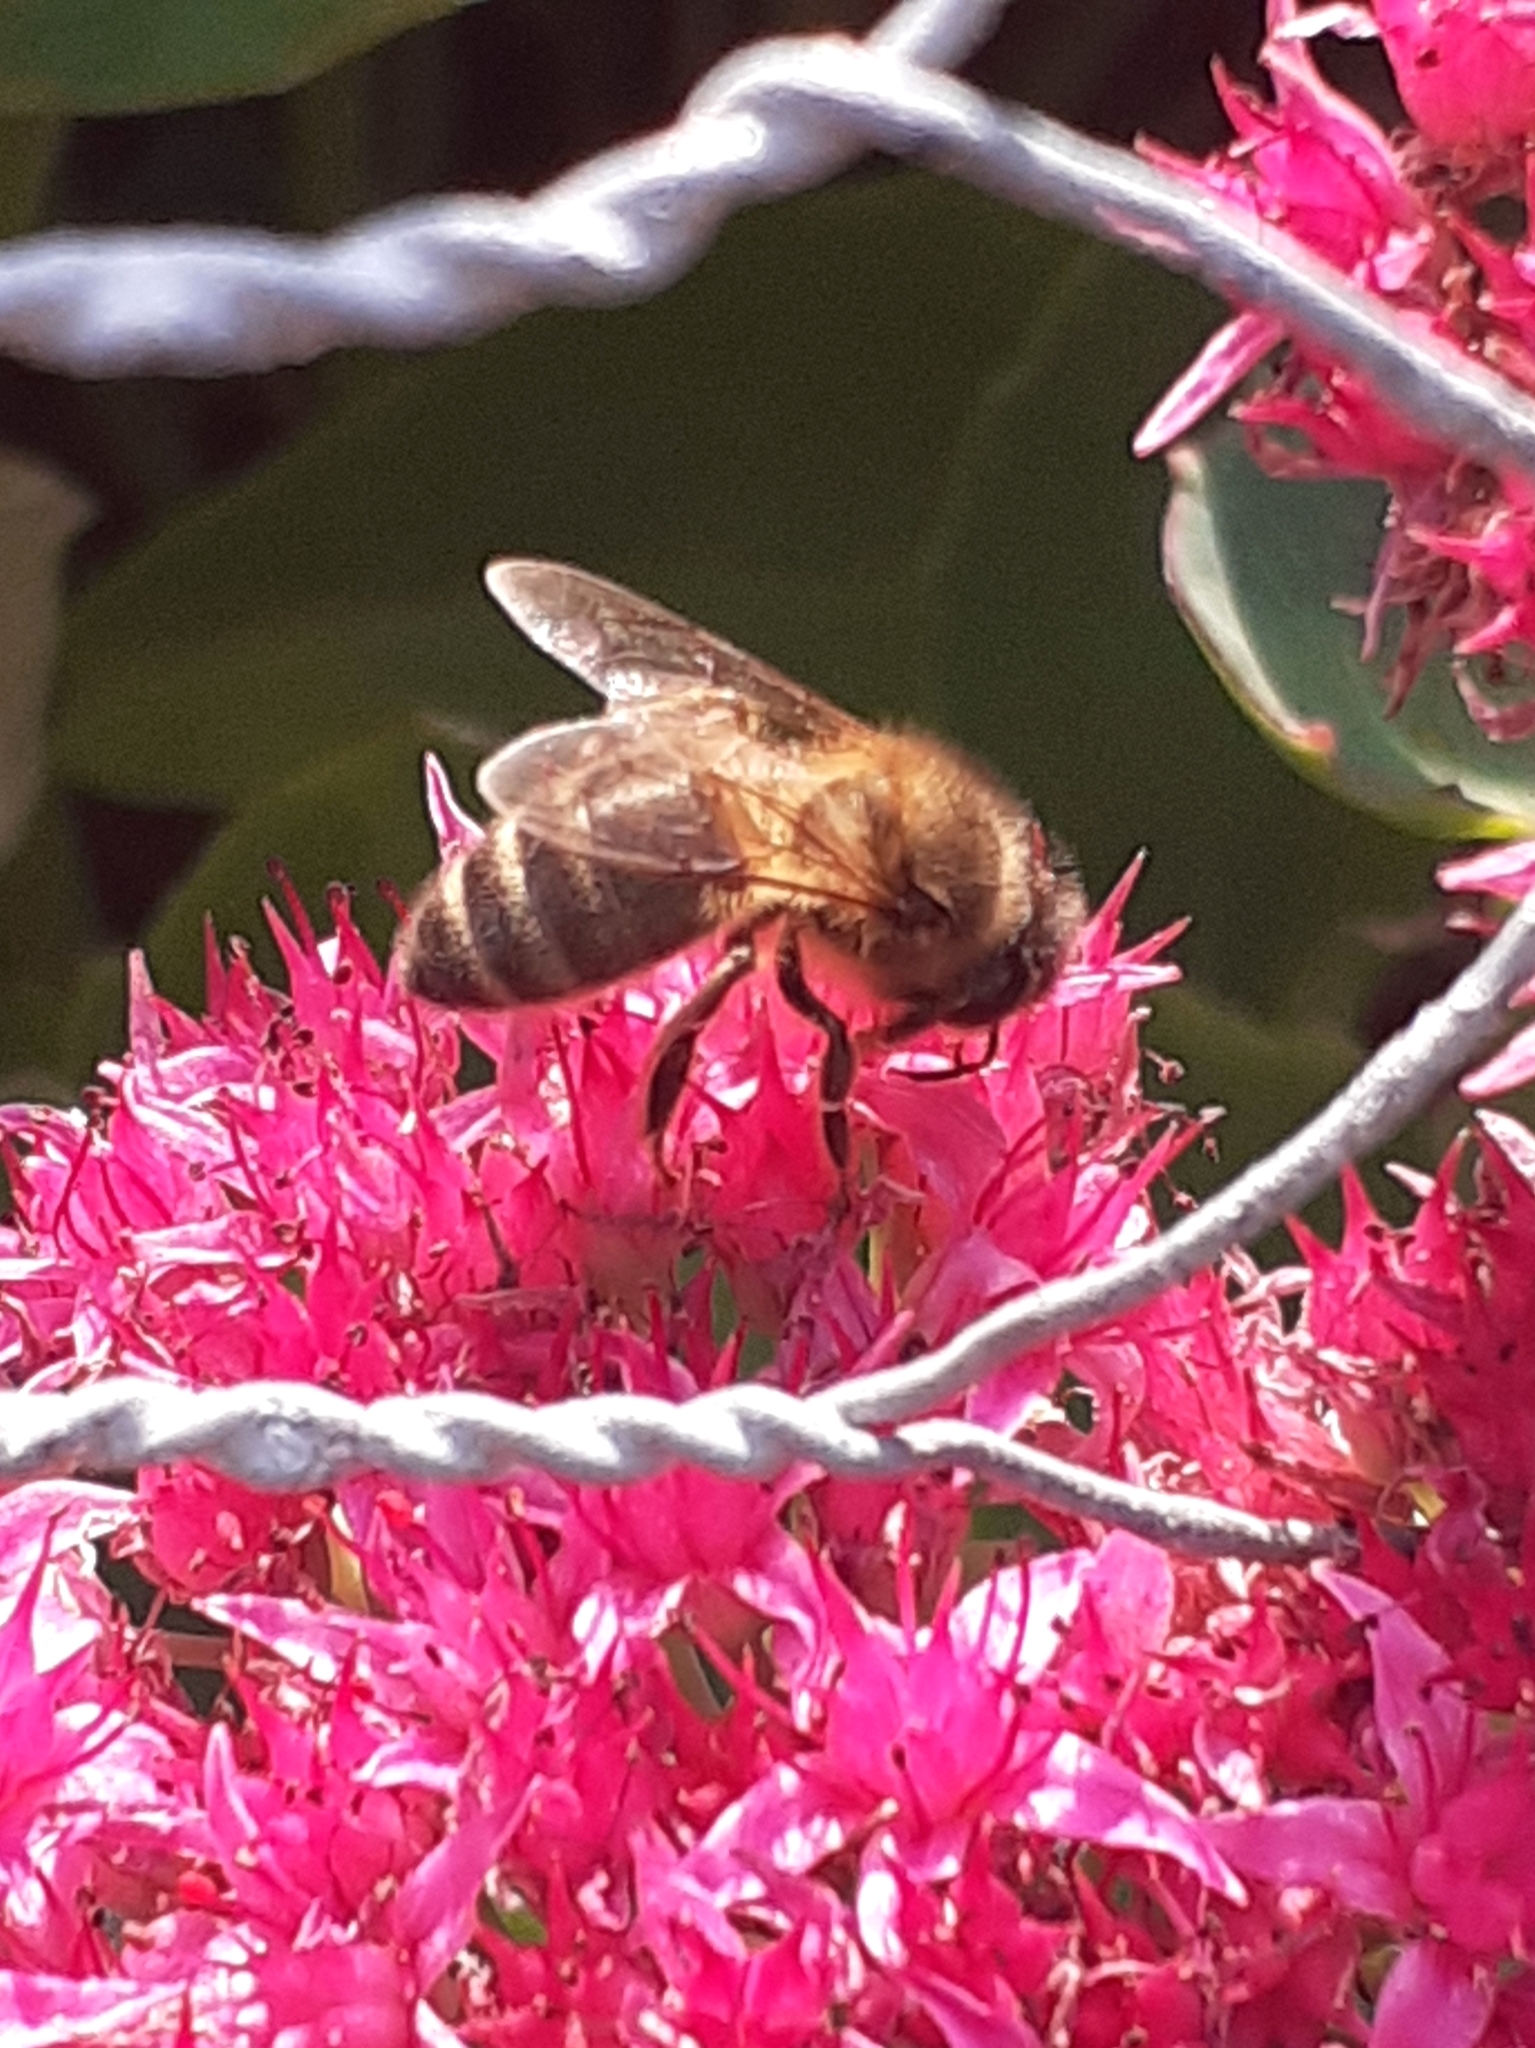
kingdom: Animalia
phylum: Arthropoda
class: Insecta
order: Hymenoptera
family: Apidae
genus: Apis
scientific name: Apis mellifera
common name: Honey bee
